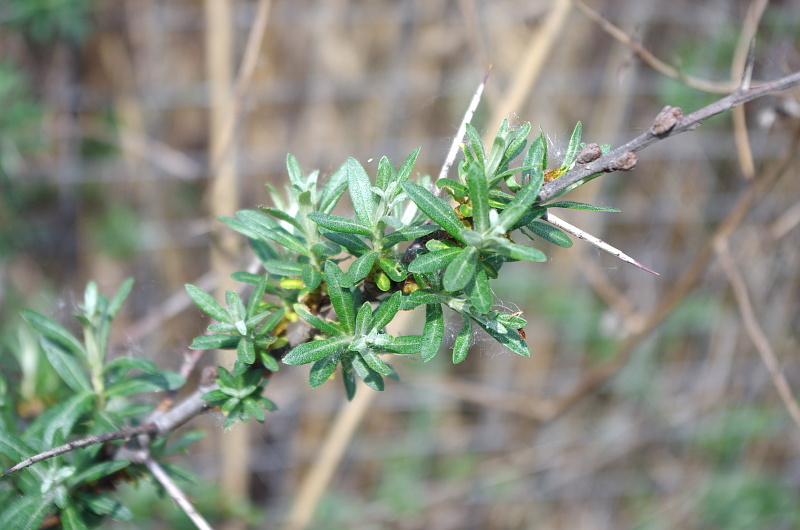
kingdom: Plantae
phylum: Tracheophyta
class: Magnoliopsida
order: Rosales
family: Elaeagnaceae
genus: Hippophae
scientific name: Hippophae rhamnoides
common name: Sea-buckthorn
